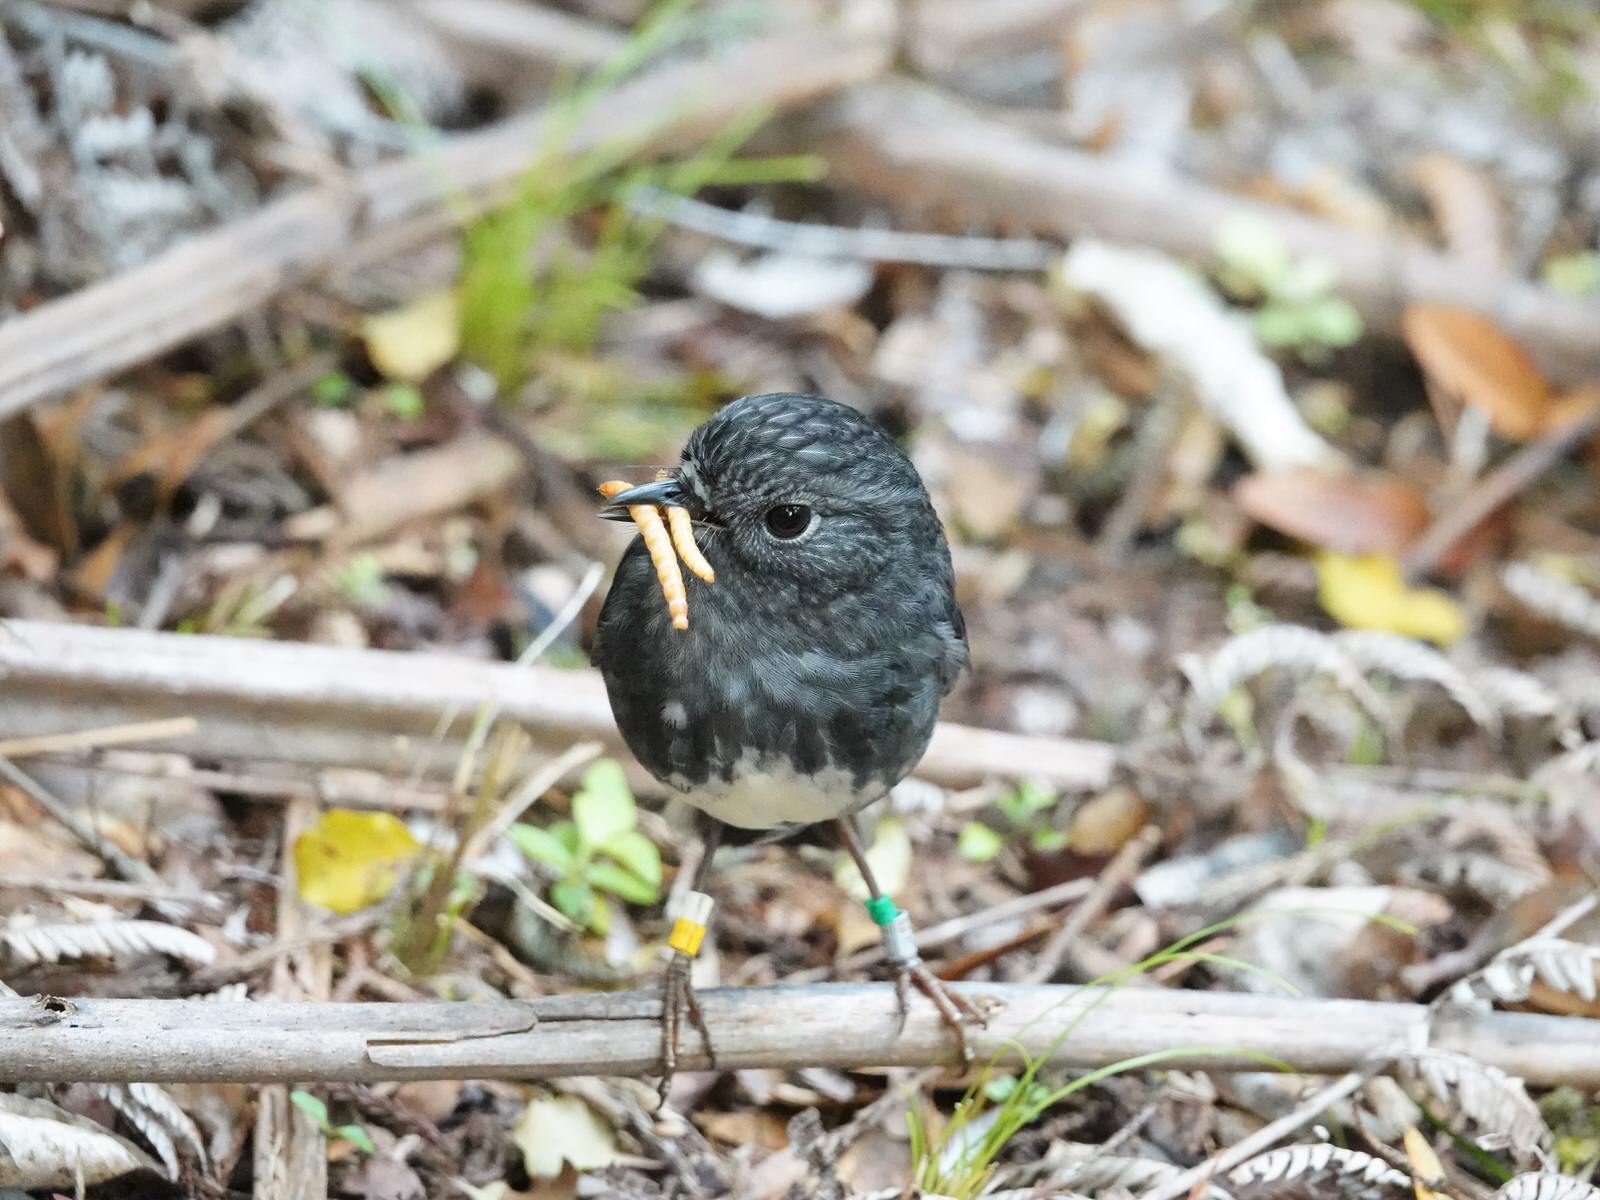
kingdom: Animalia
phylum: Chordata
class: Aves
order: Passeriformes
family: Petroicidae
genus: Petroica
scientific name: Petroica australis
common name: New zealand robin
